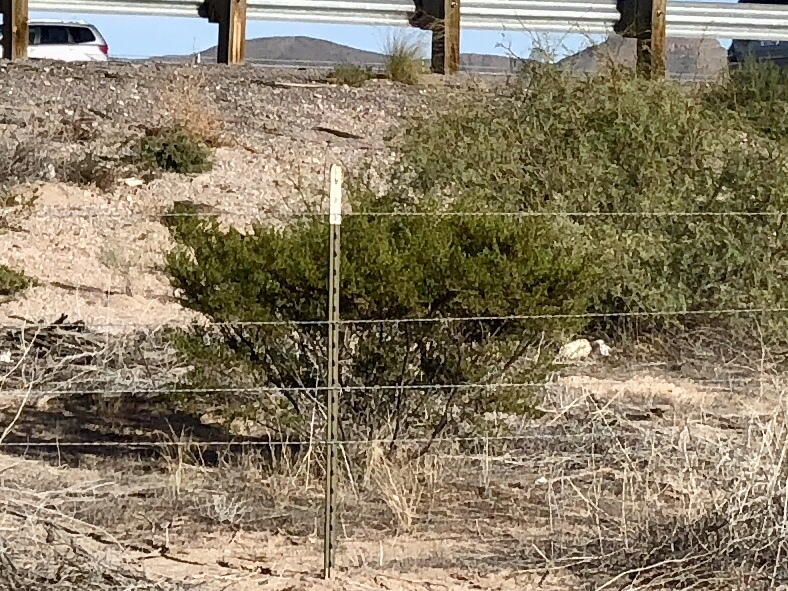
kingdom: Plantae
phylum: Tracheophyta
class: Magnoliopsida
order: Zygophyllales
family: Zygophyllaceae
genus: Larrea
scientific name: Larrea tridentata
